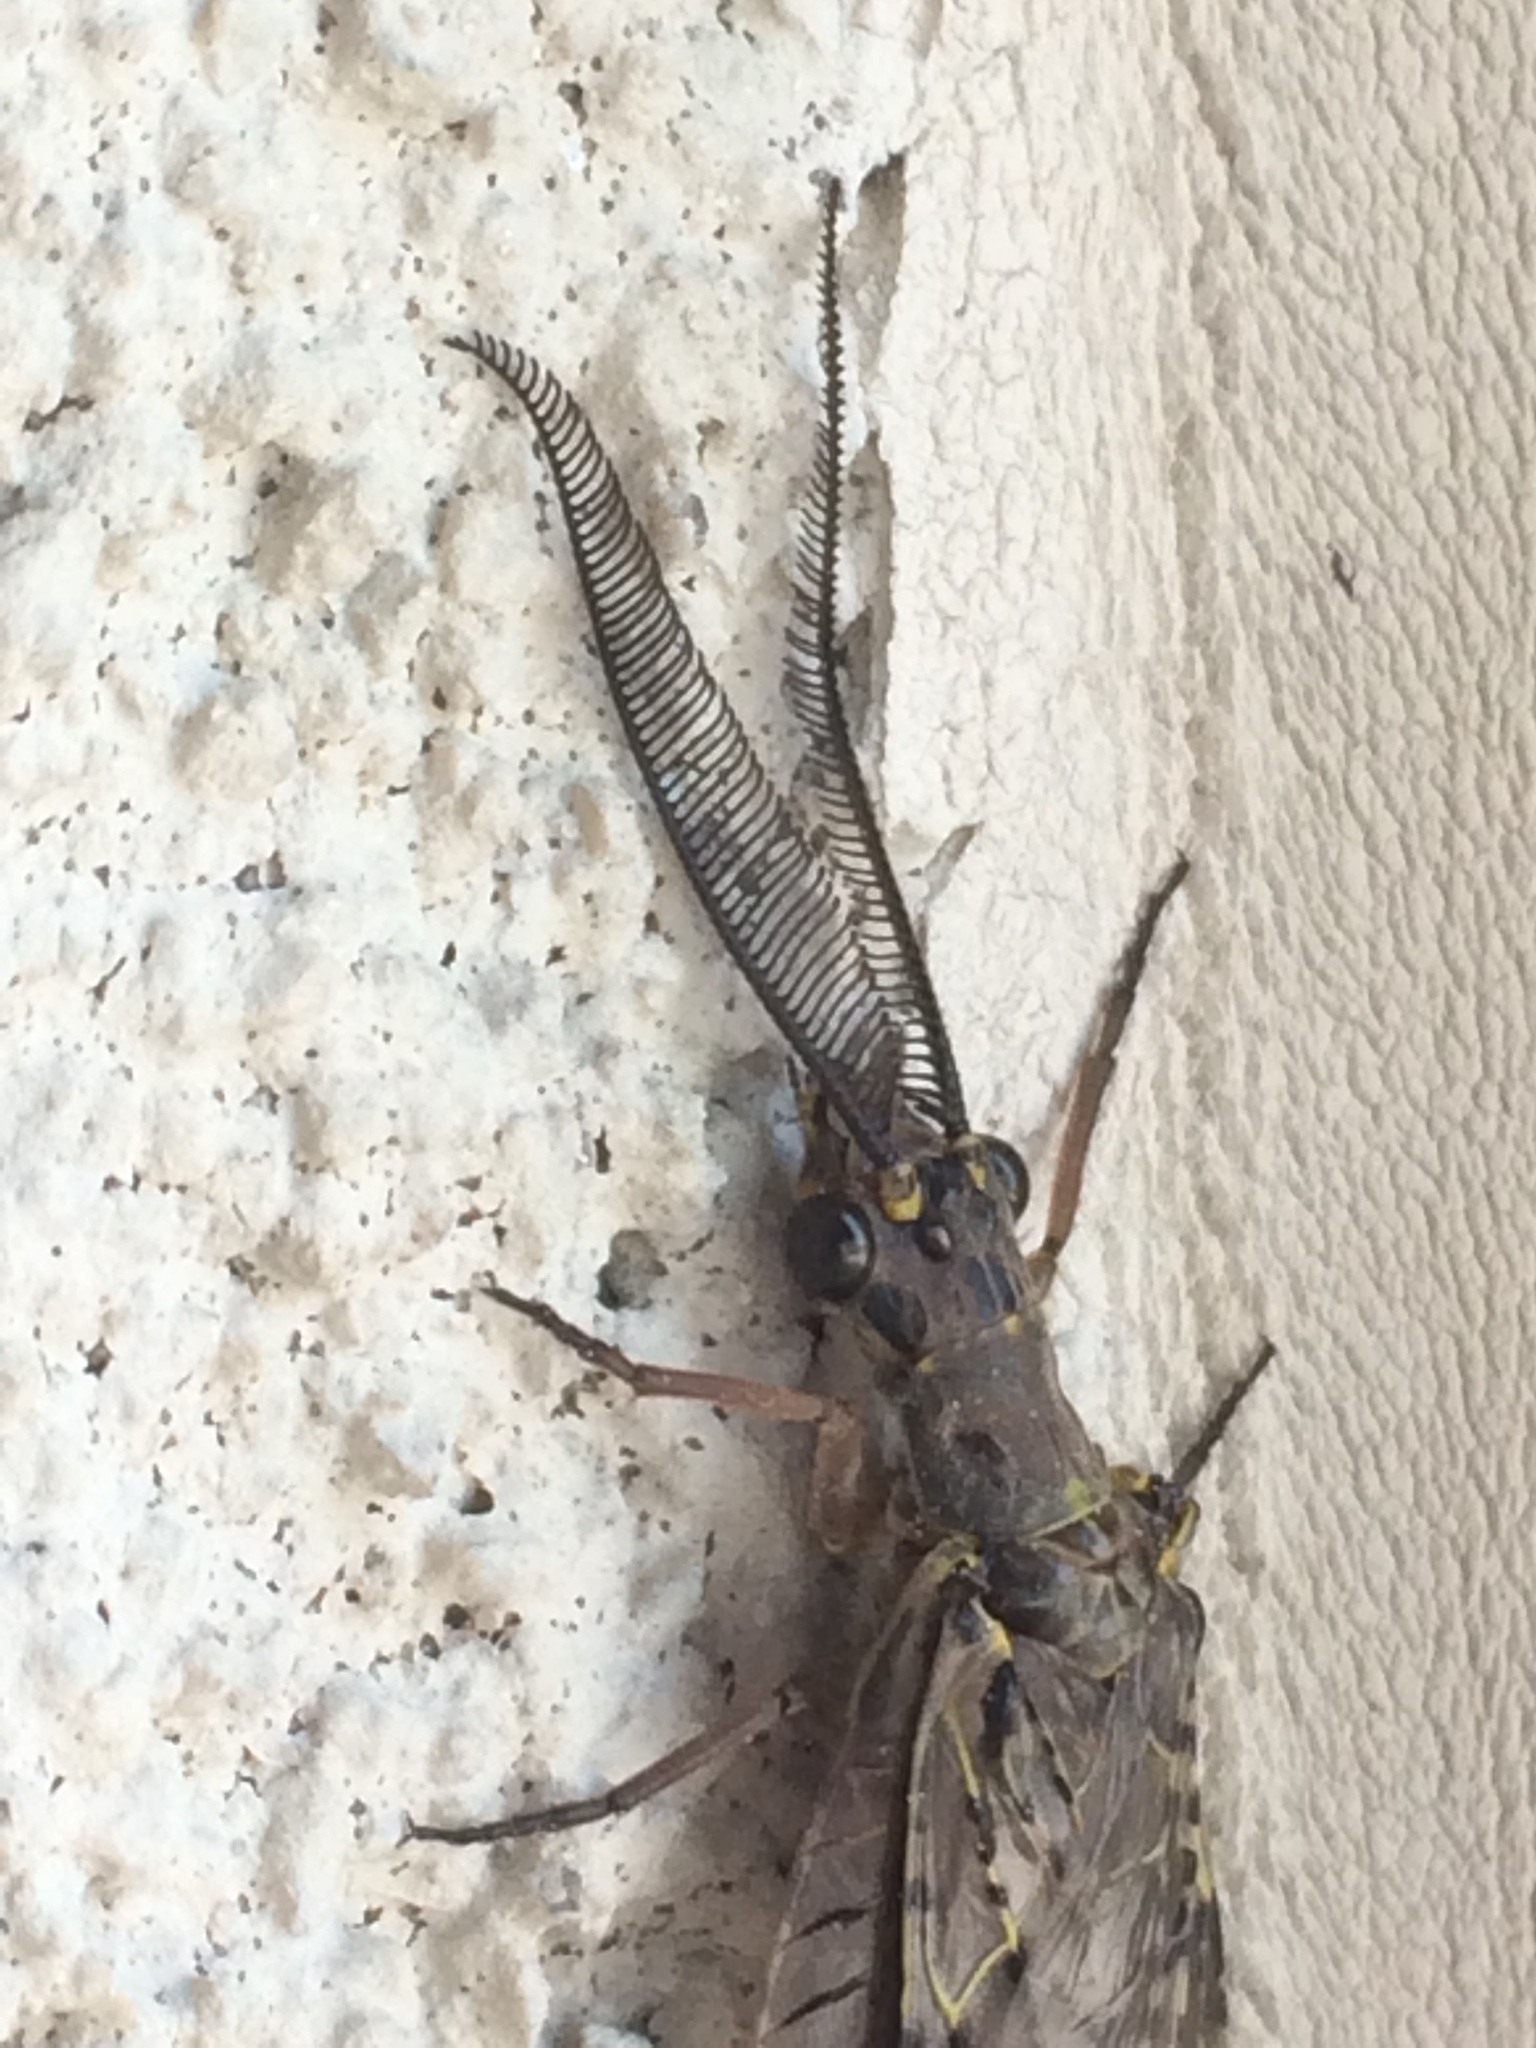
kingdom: Animalia
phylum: Arthropoda
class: Insecta
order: Megaloptera
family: Corydalidae
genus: Chauliodes
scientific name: Chauliodes rastricornis
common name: Spring fishfly
